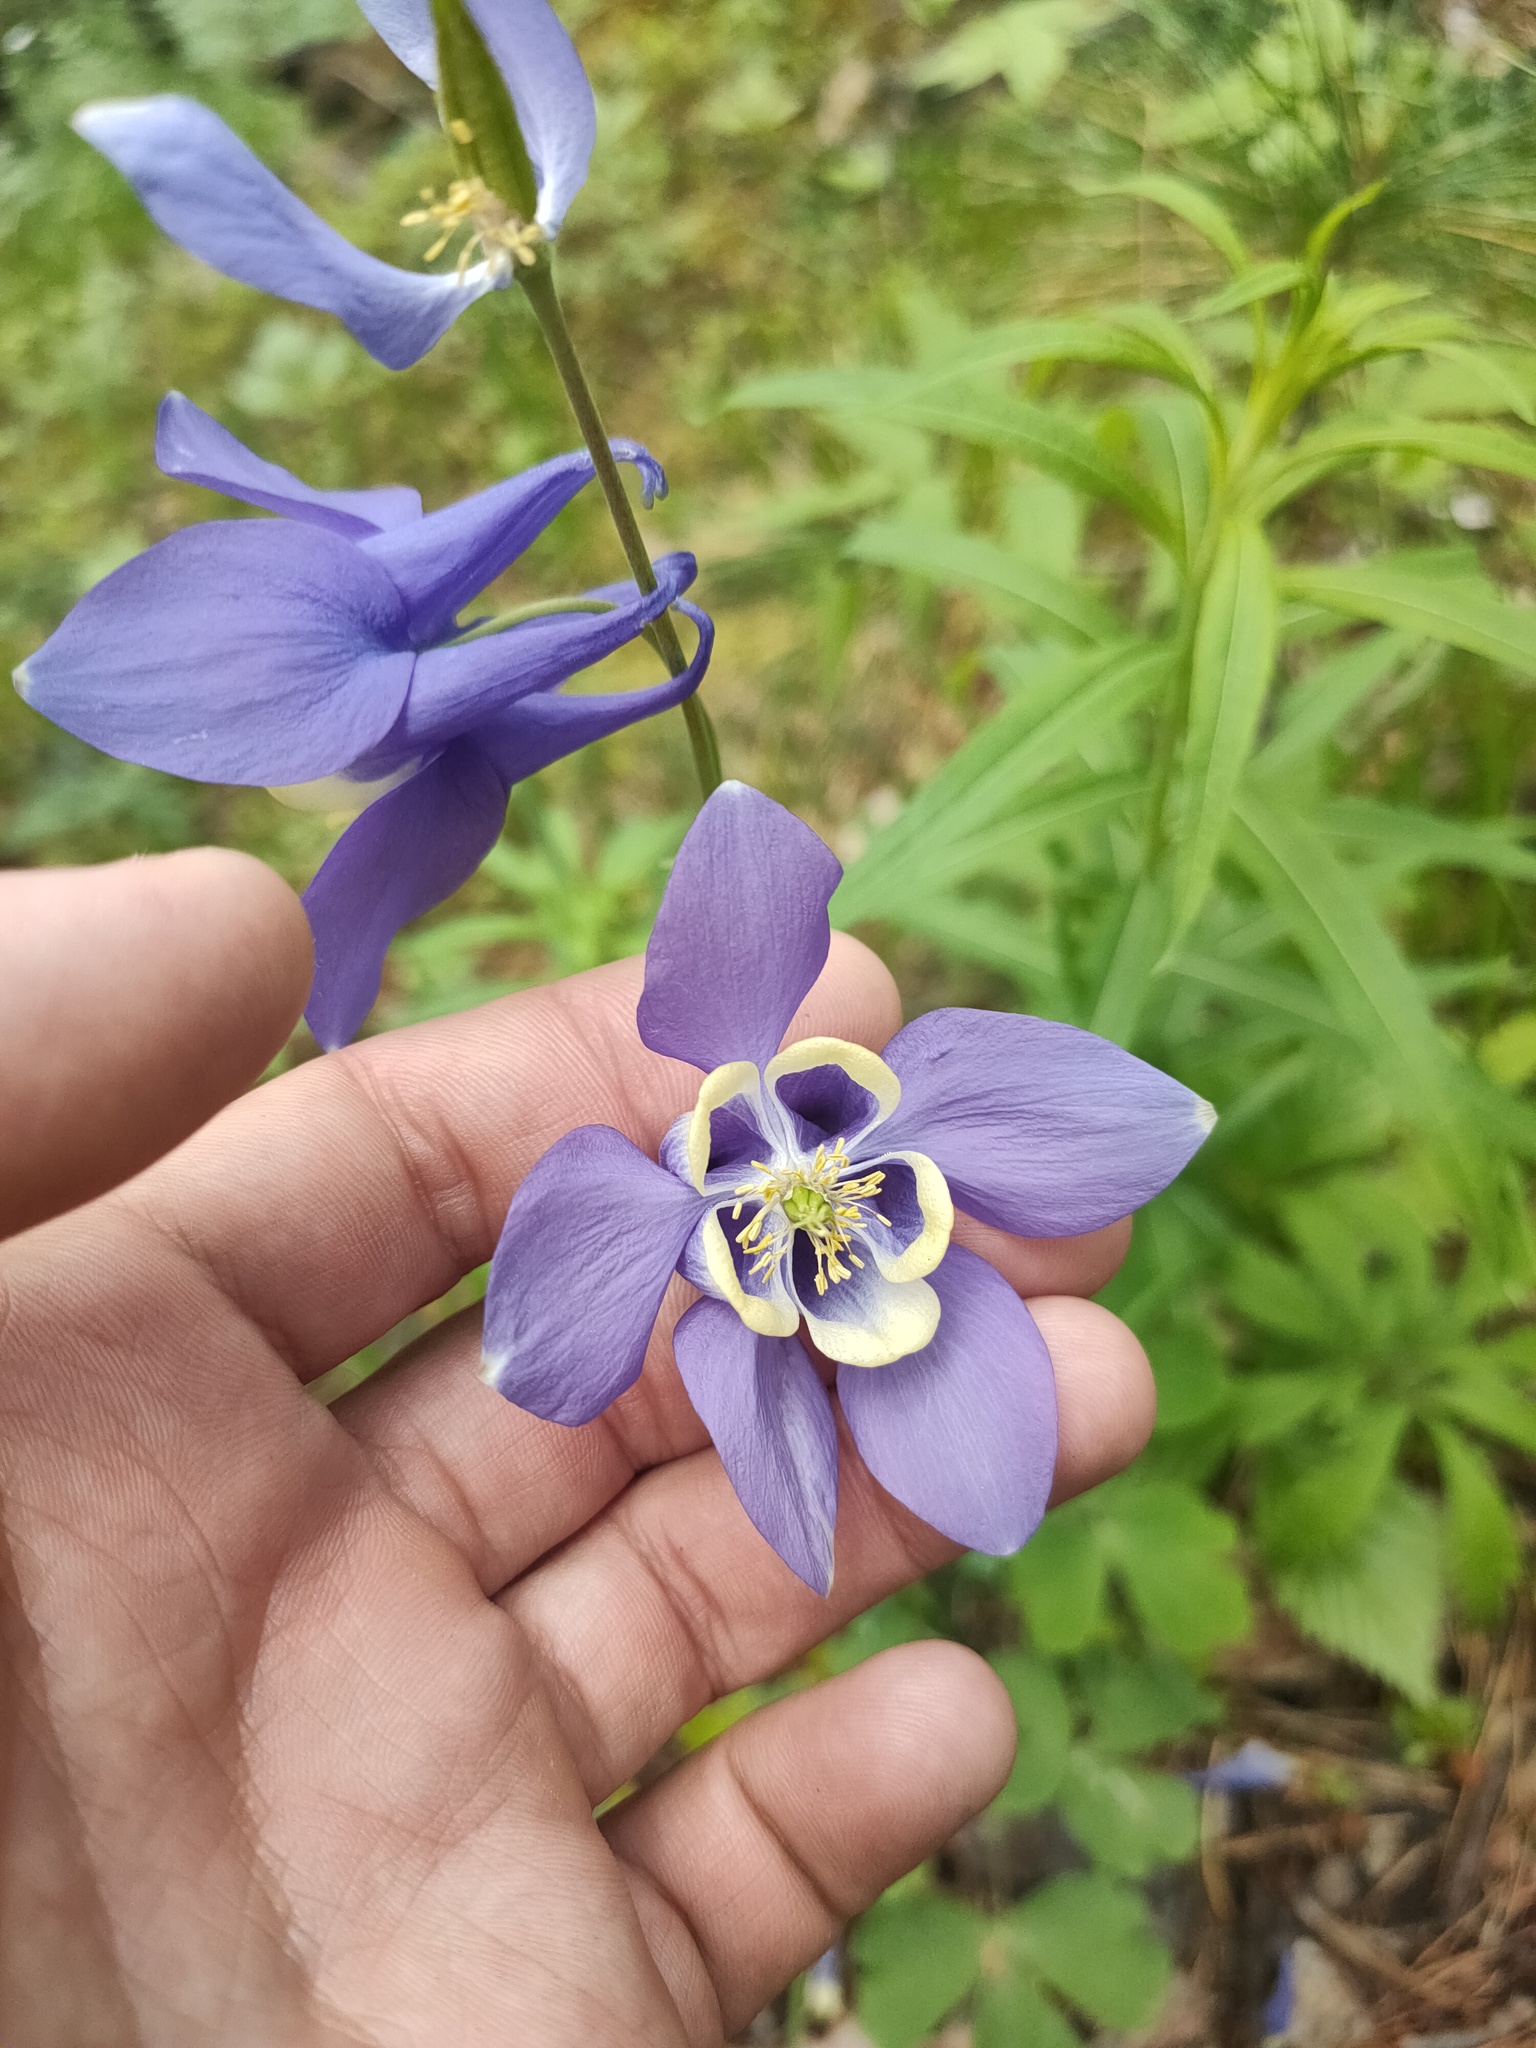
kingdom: Plantae
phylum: Tracheophyta
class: Magnoliopsida
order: Ranunculales
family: Ranunculaceae
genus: Aquilegia
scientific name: Aquilegia sibirica
